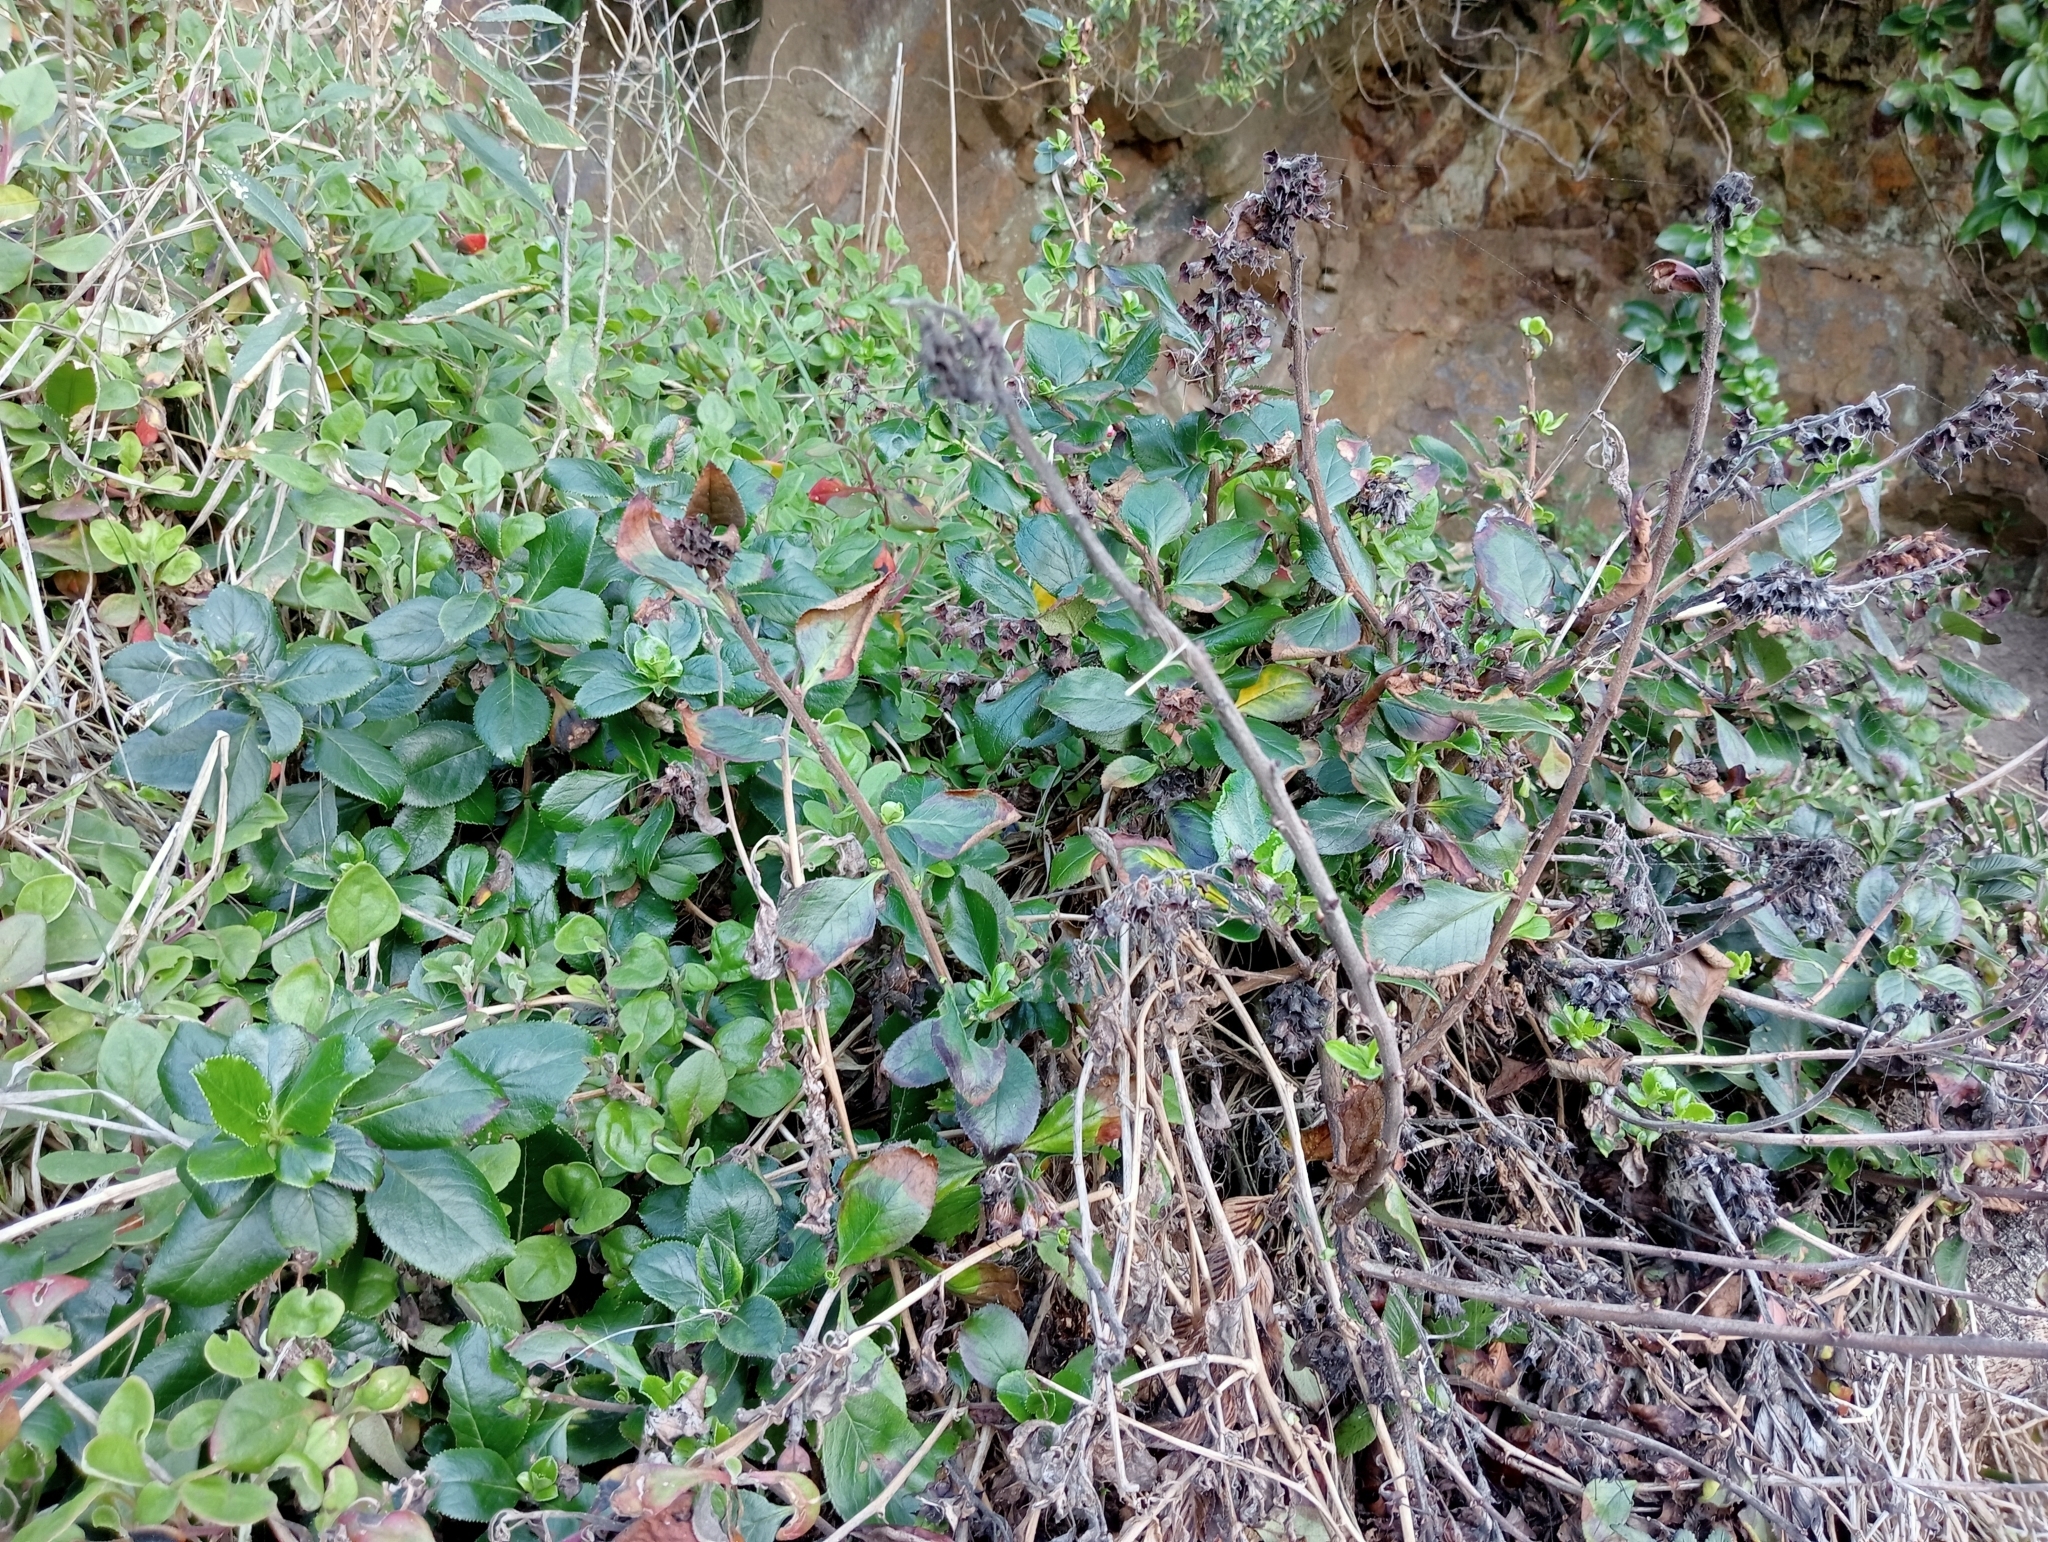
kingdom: Plantae
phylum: Tracheophyta
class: Magnoliopsida
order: Escalloniales
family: Escalloniaceae
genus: Escallonia
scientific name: Escallonia rubra
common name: Redclaws
